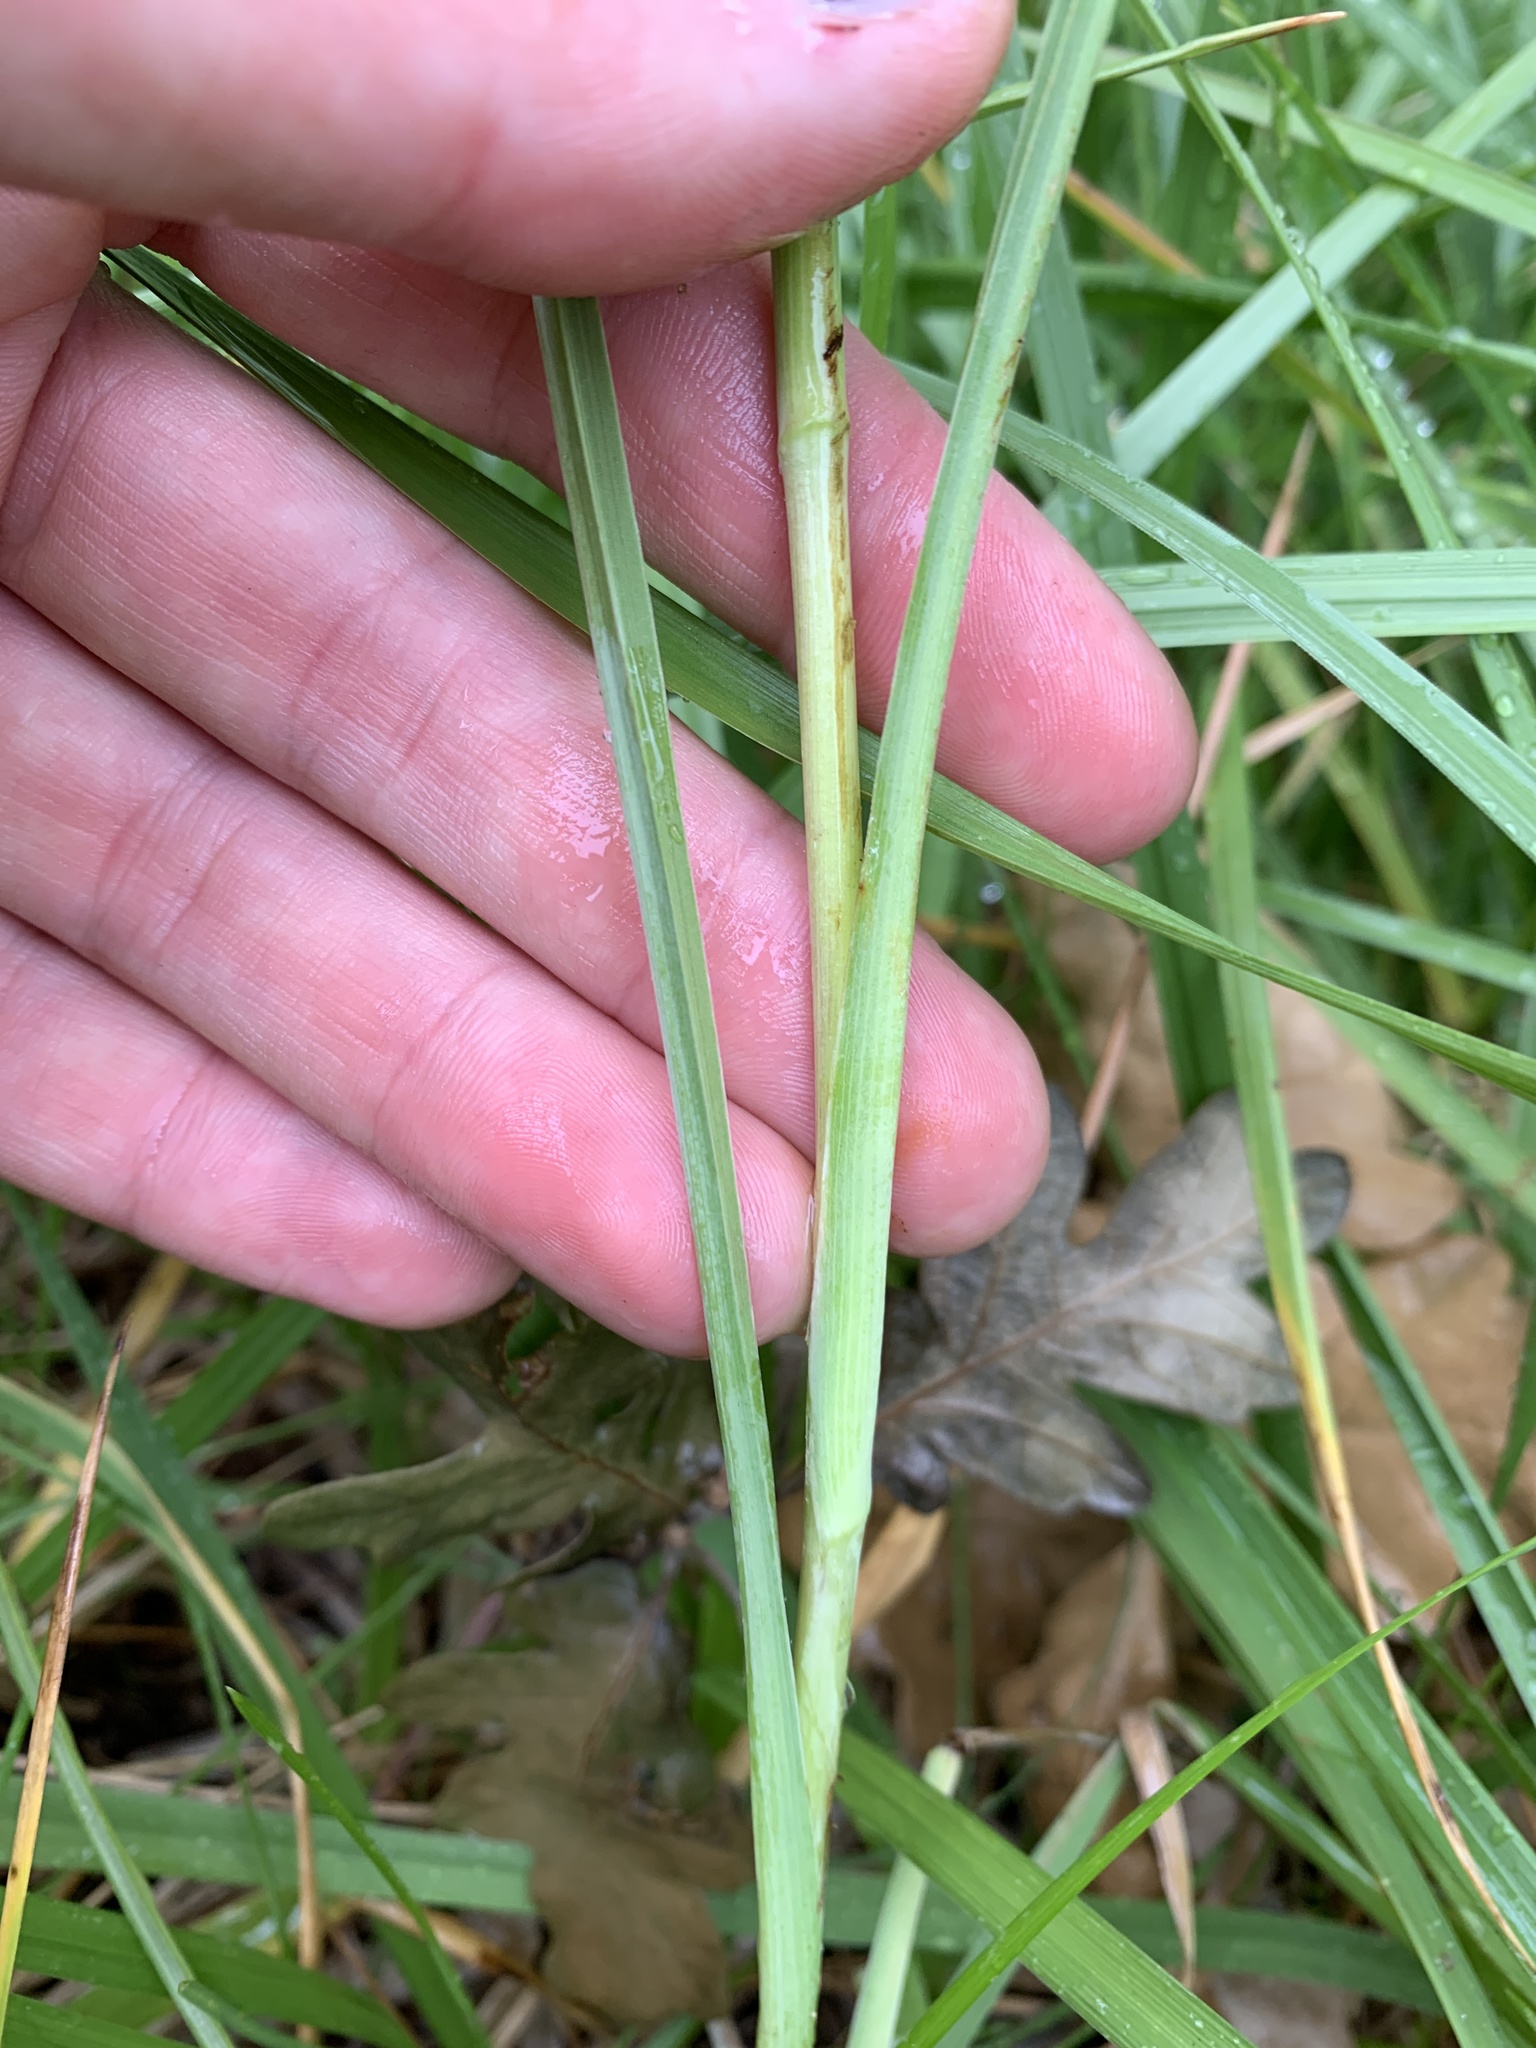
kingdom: Plantae
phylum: Tracheophyta
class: Magnoliopsida
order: Asterales
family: Asteraceae
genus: Tragopogon
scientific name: Tragopogon porrifolius
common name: Salsify
